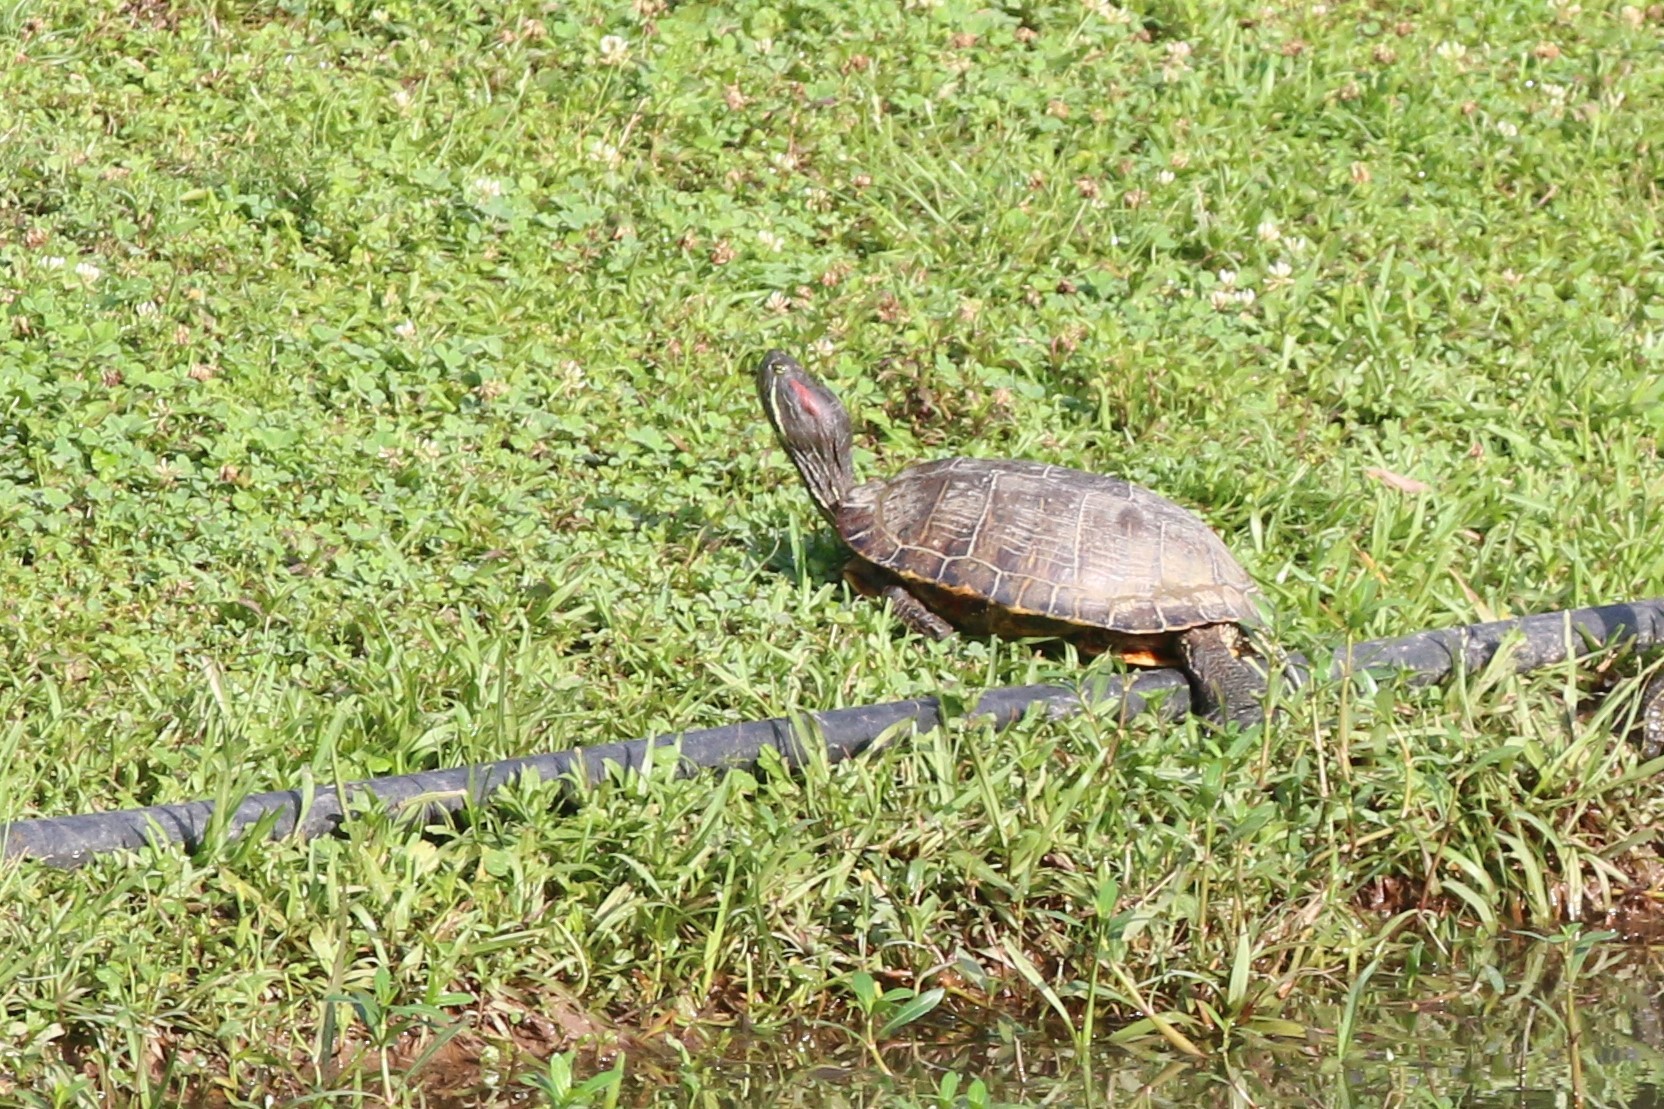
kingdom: Animalia
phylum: Chordata
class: Testudines
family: Emydidae
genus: Trachemys
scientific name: Trachemys scripta
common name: Slider
